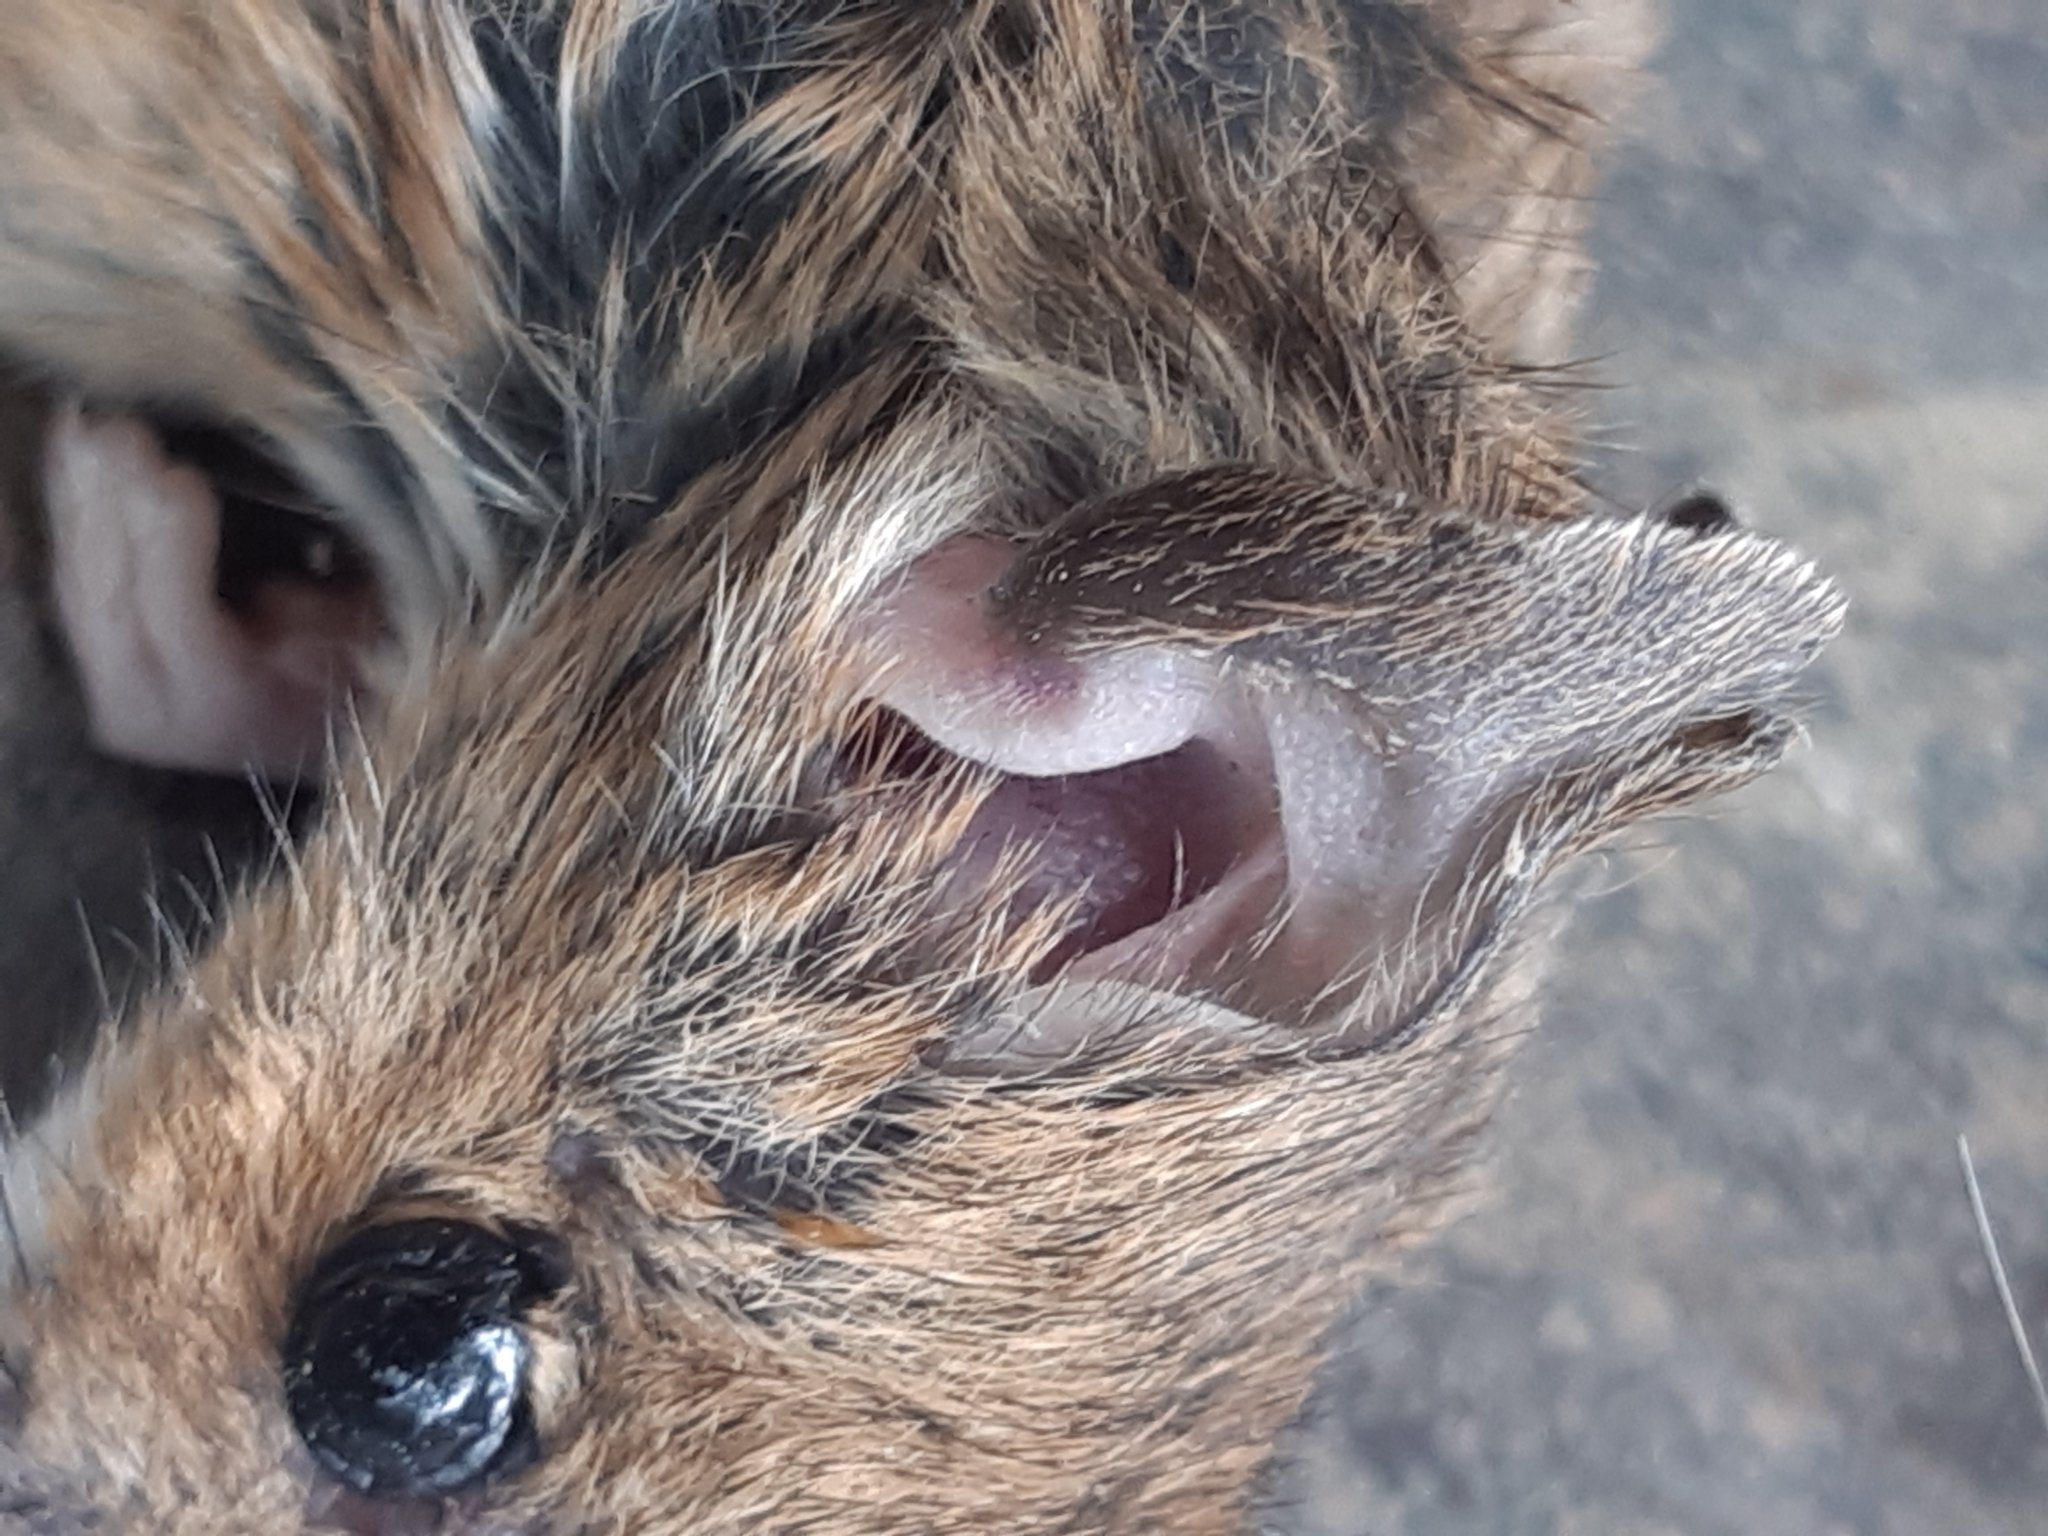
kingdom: Animalia
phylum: Chordata
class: Mammalia
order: Rodentia
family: Muridae
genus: Apodemus
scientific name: Apodemus sylvaticus
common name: Wood mouse
